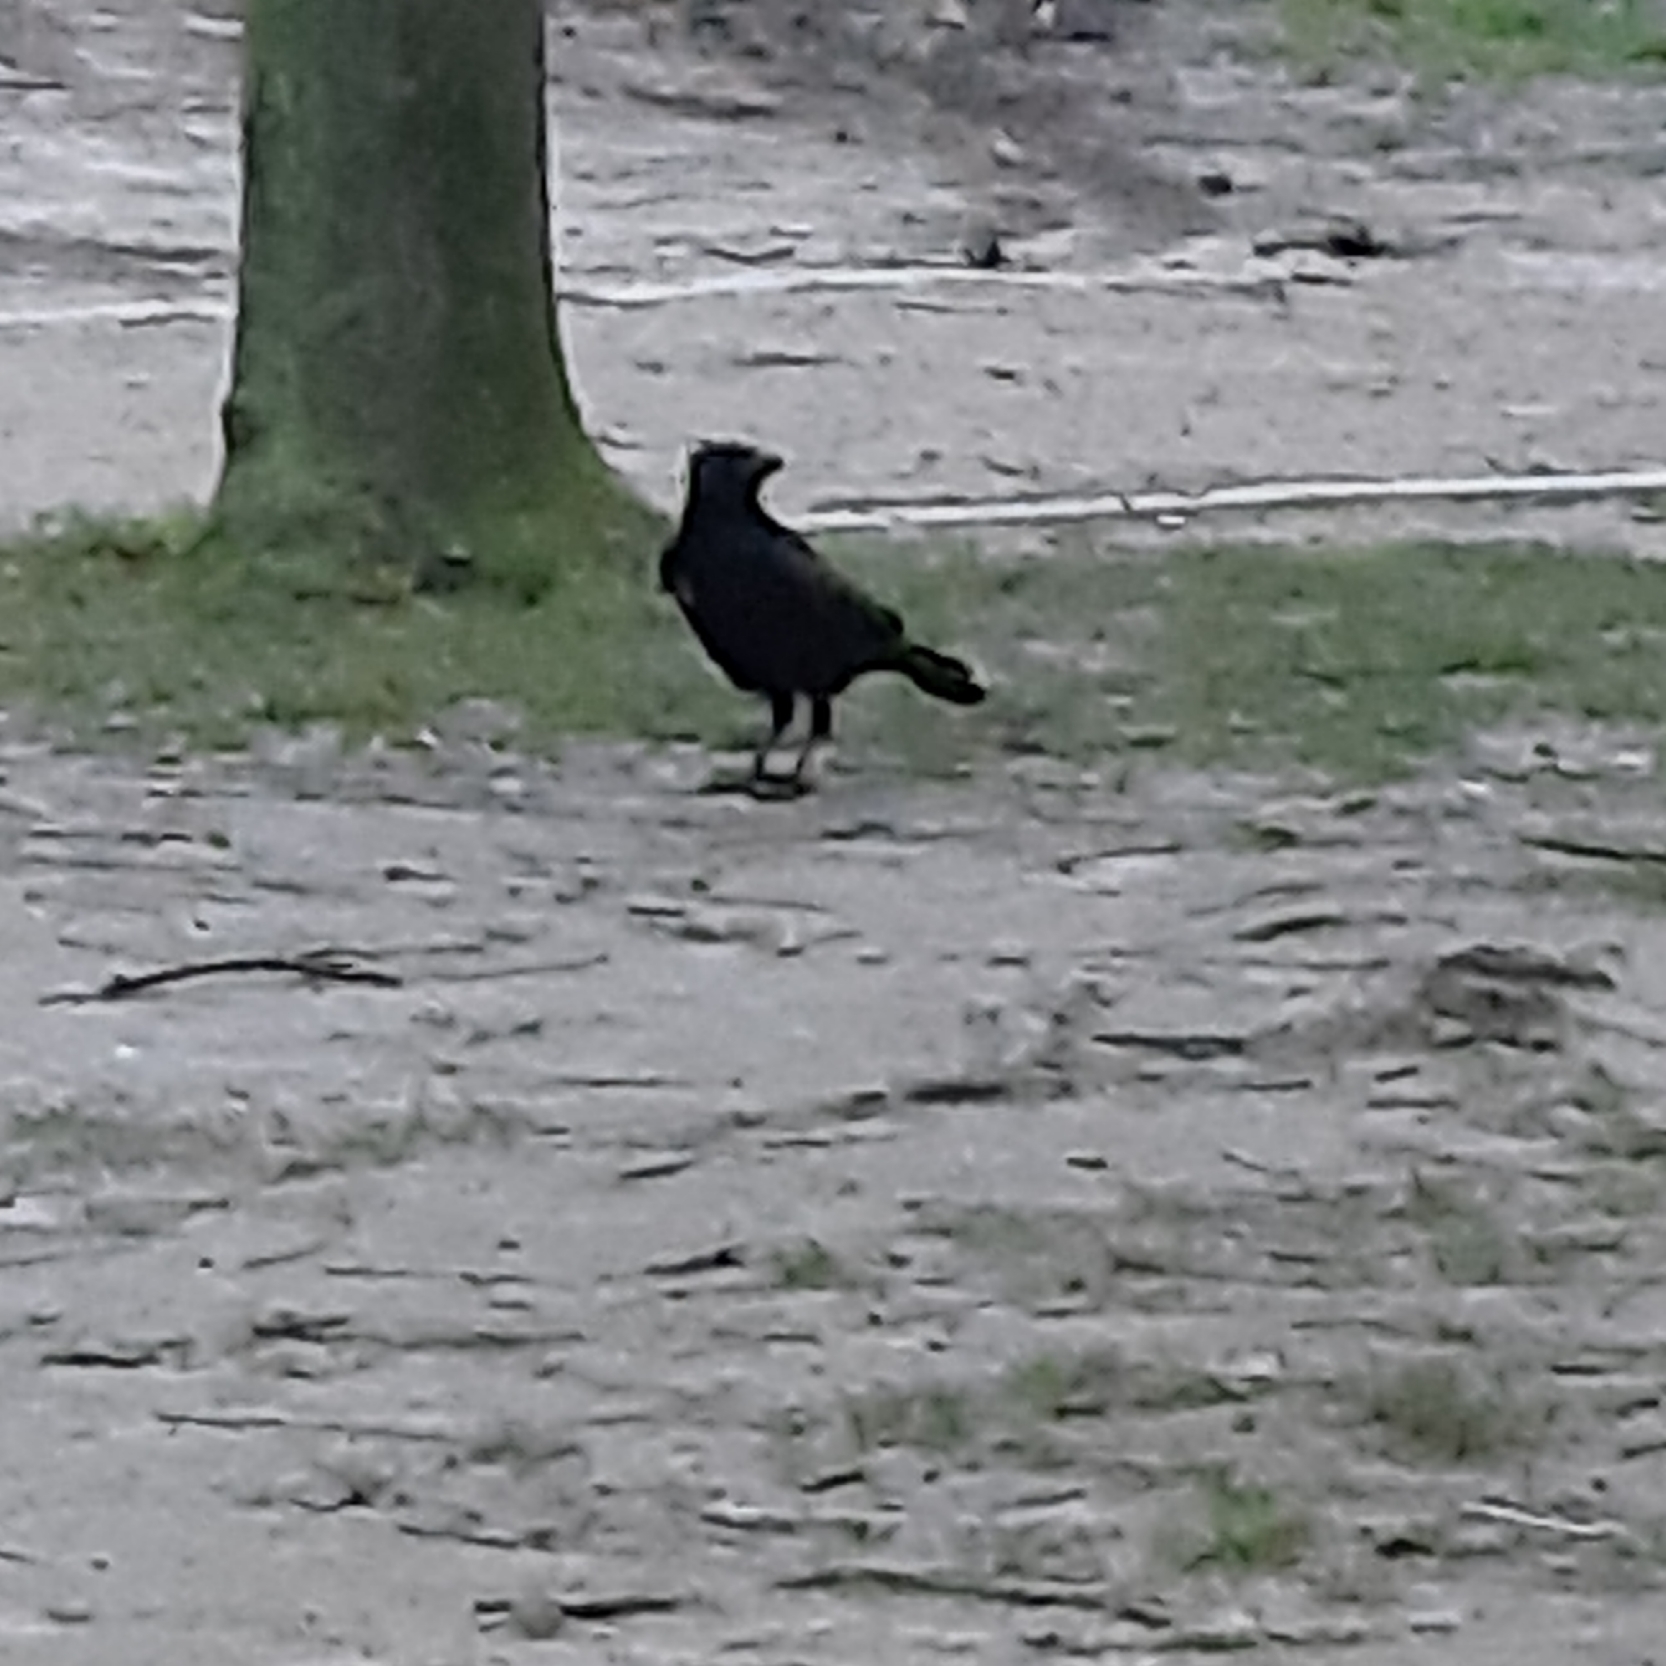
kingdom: Animalia
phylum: Chordata
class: Aves
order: Passeriformes
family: Corvidae
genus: Corvus
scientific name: Corvus corone
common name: Carrion crow
